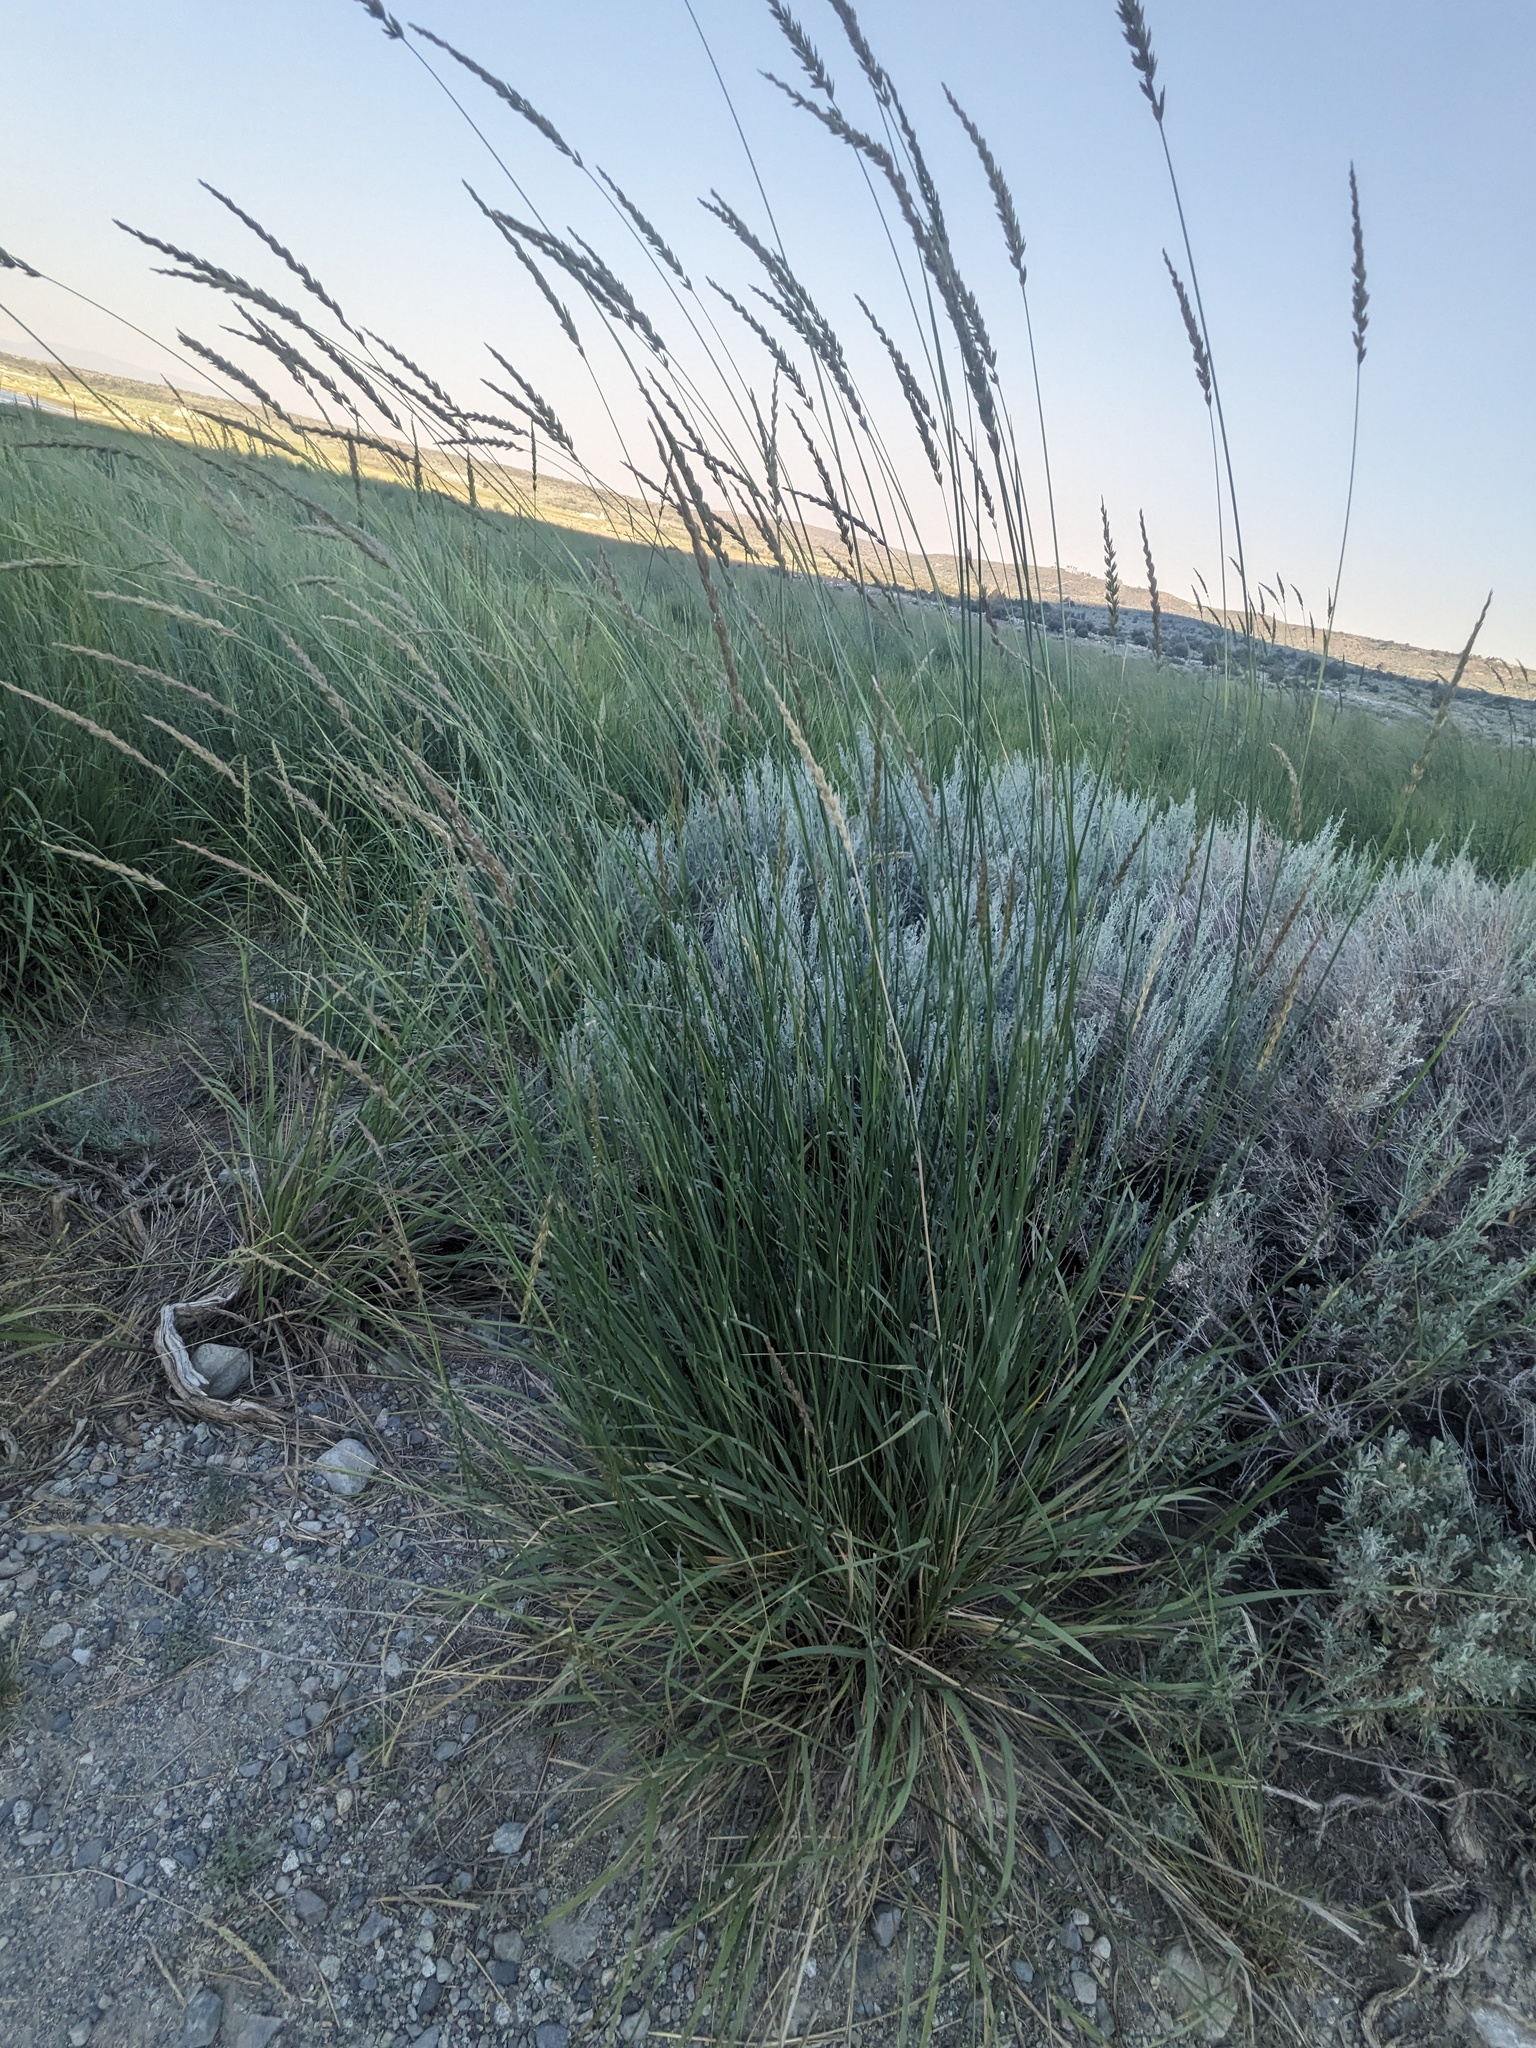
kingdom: Plantae
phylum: Tracheophyta
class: Liliopsida
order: Poales
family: Poaceae
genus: Leymus
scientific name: Leymus cinereus
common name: Basin wild rye
